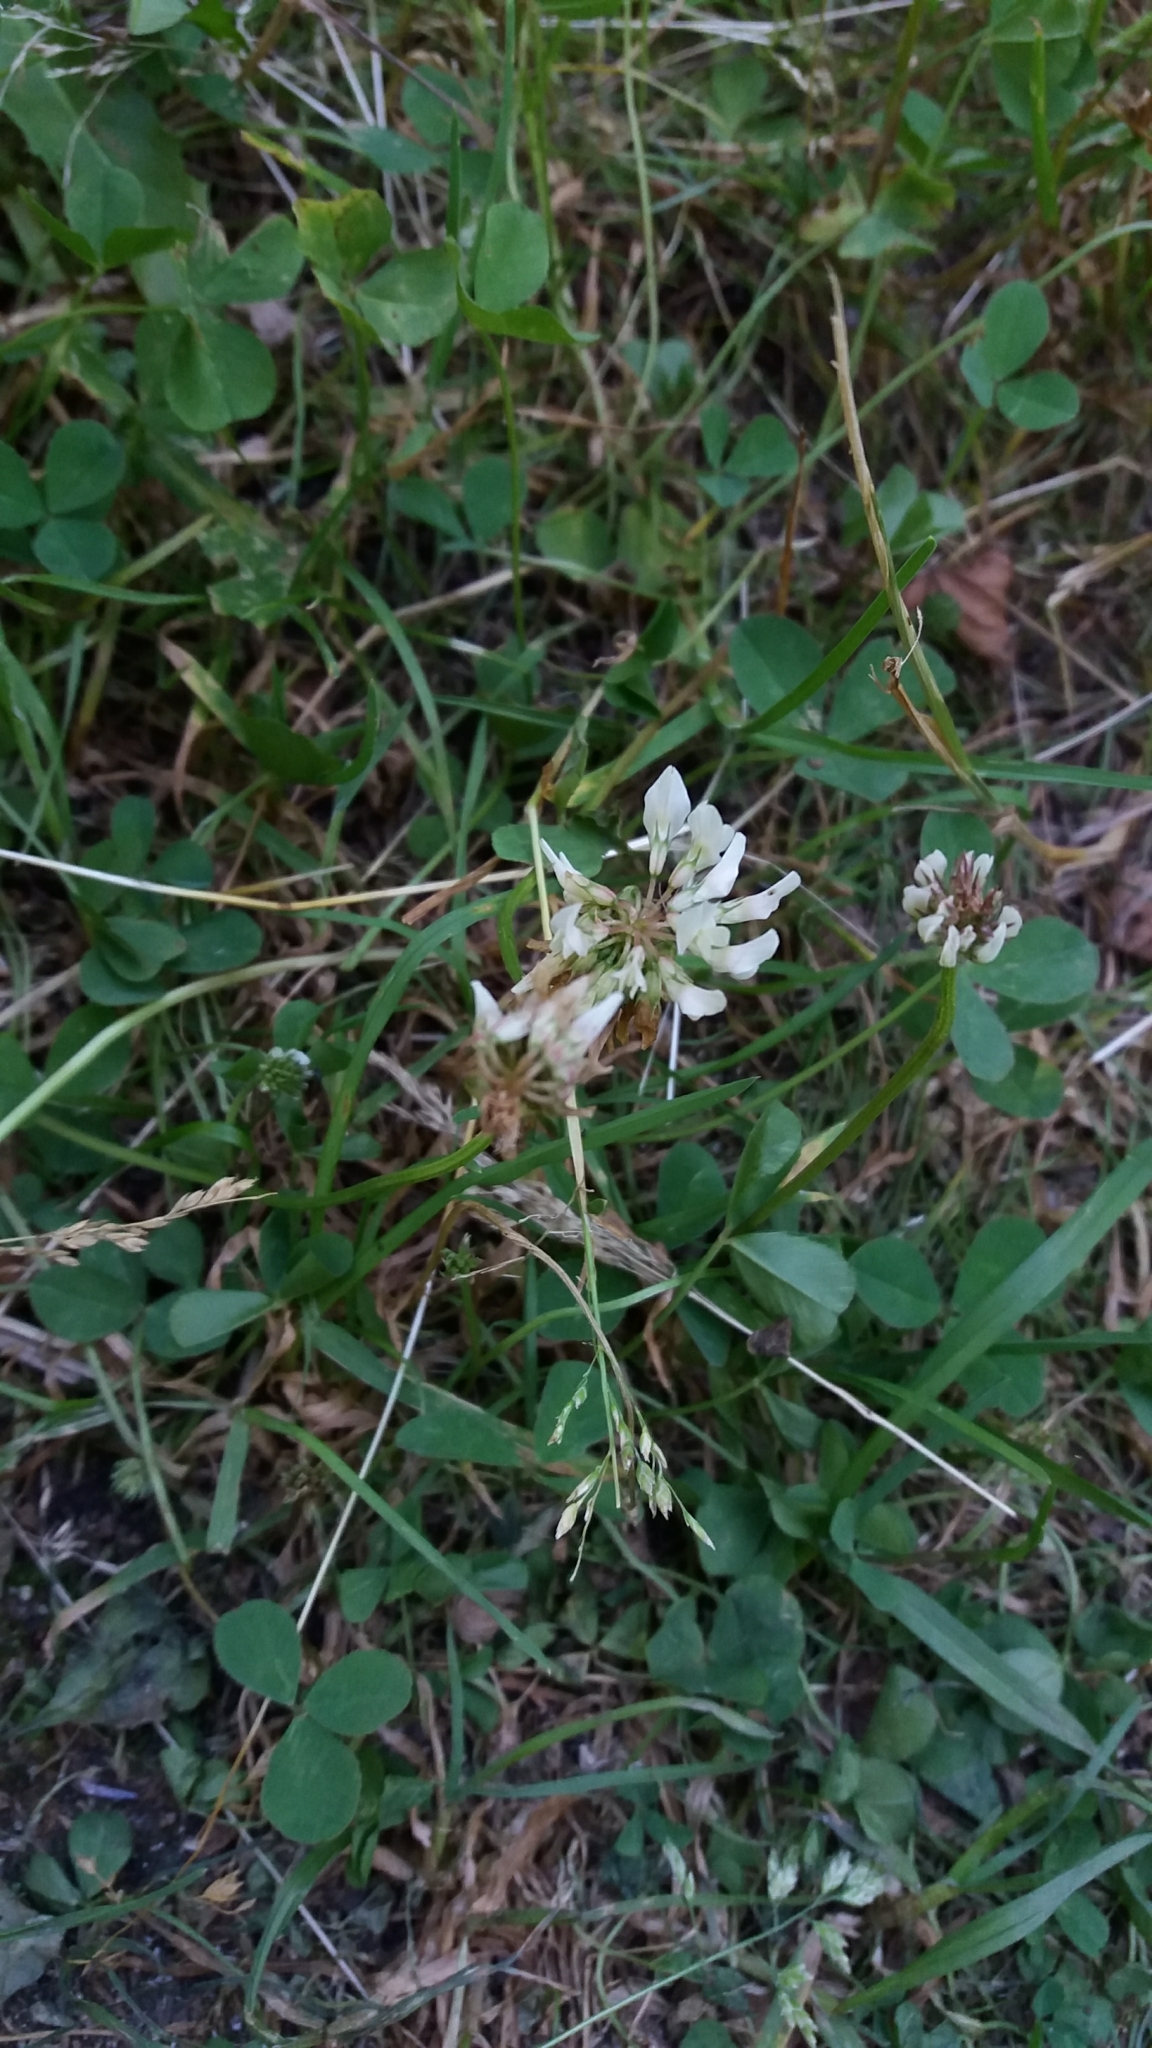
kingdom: Plantae
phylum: Tracheophyta
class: Magnoliopsida
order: Fabales
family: Fabaceae
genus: Trifolium
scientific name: Trifolium repens
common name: White clover
